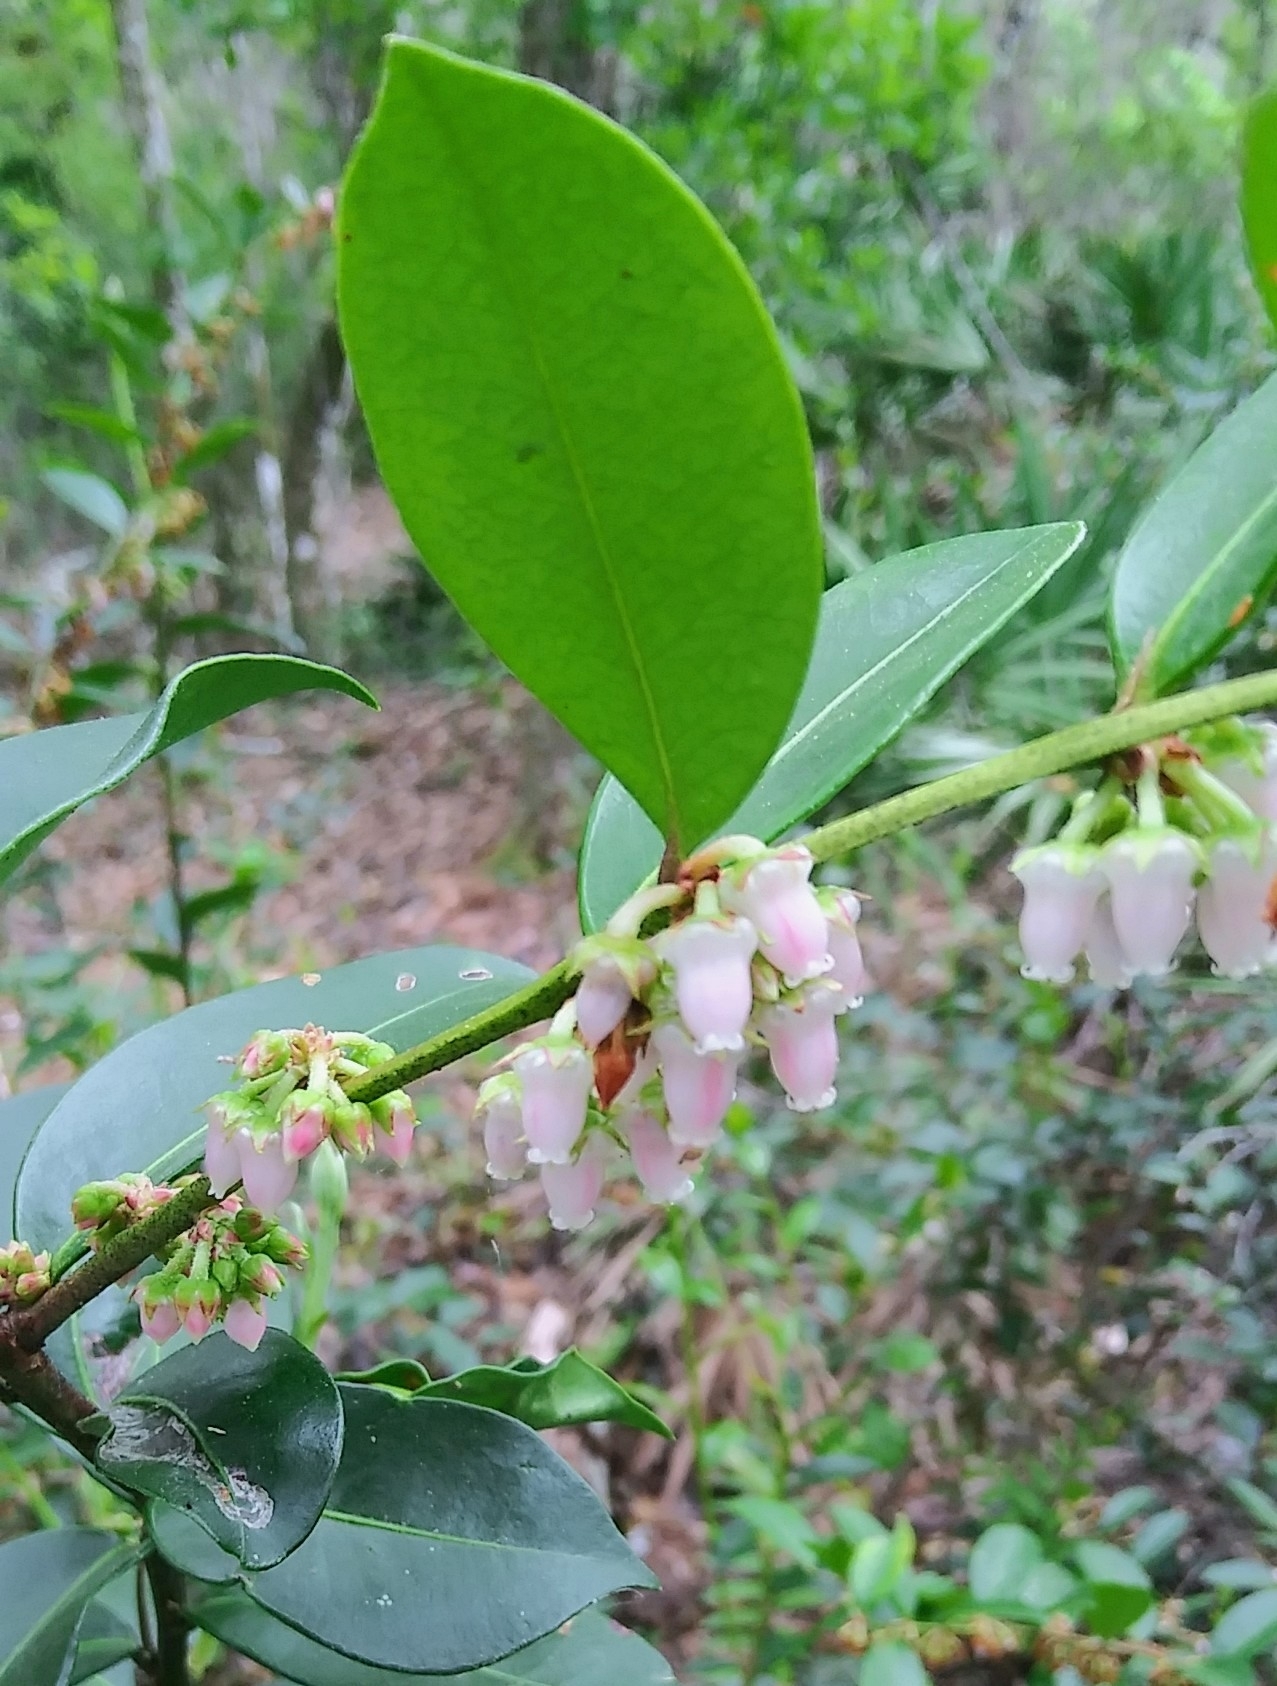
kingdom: Plantae
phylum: Tracheophyta
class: Magnoliopsida
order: Ericales
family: Ericaceae
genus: Lyonia
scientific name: Lyonia lucida
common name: Fetterbush
